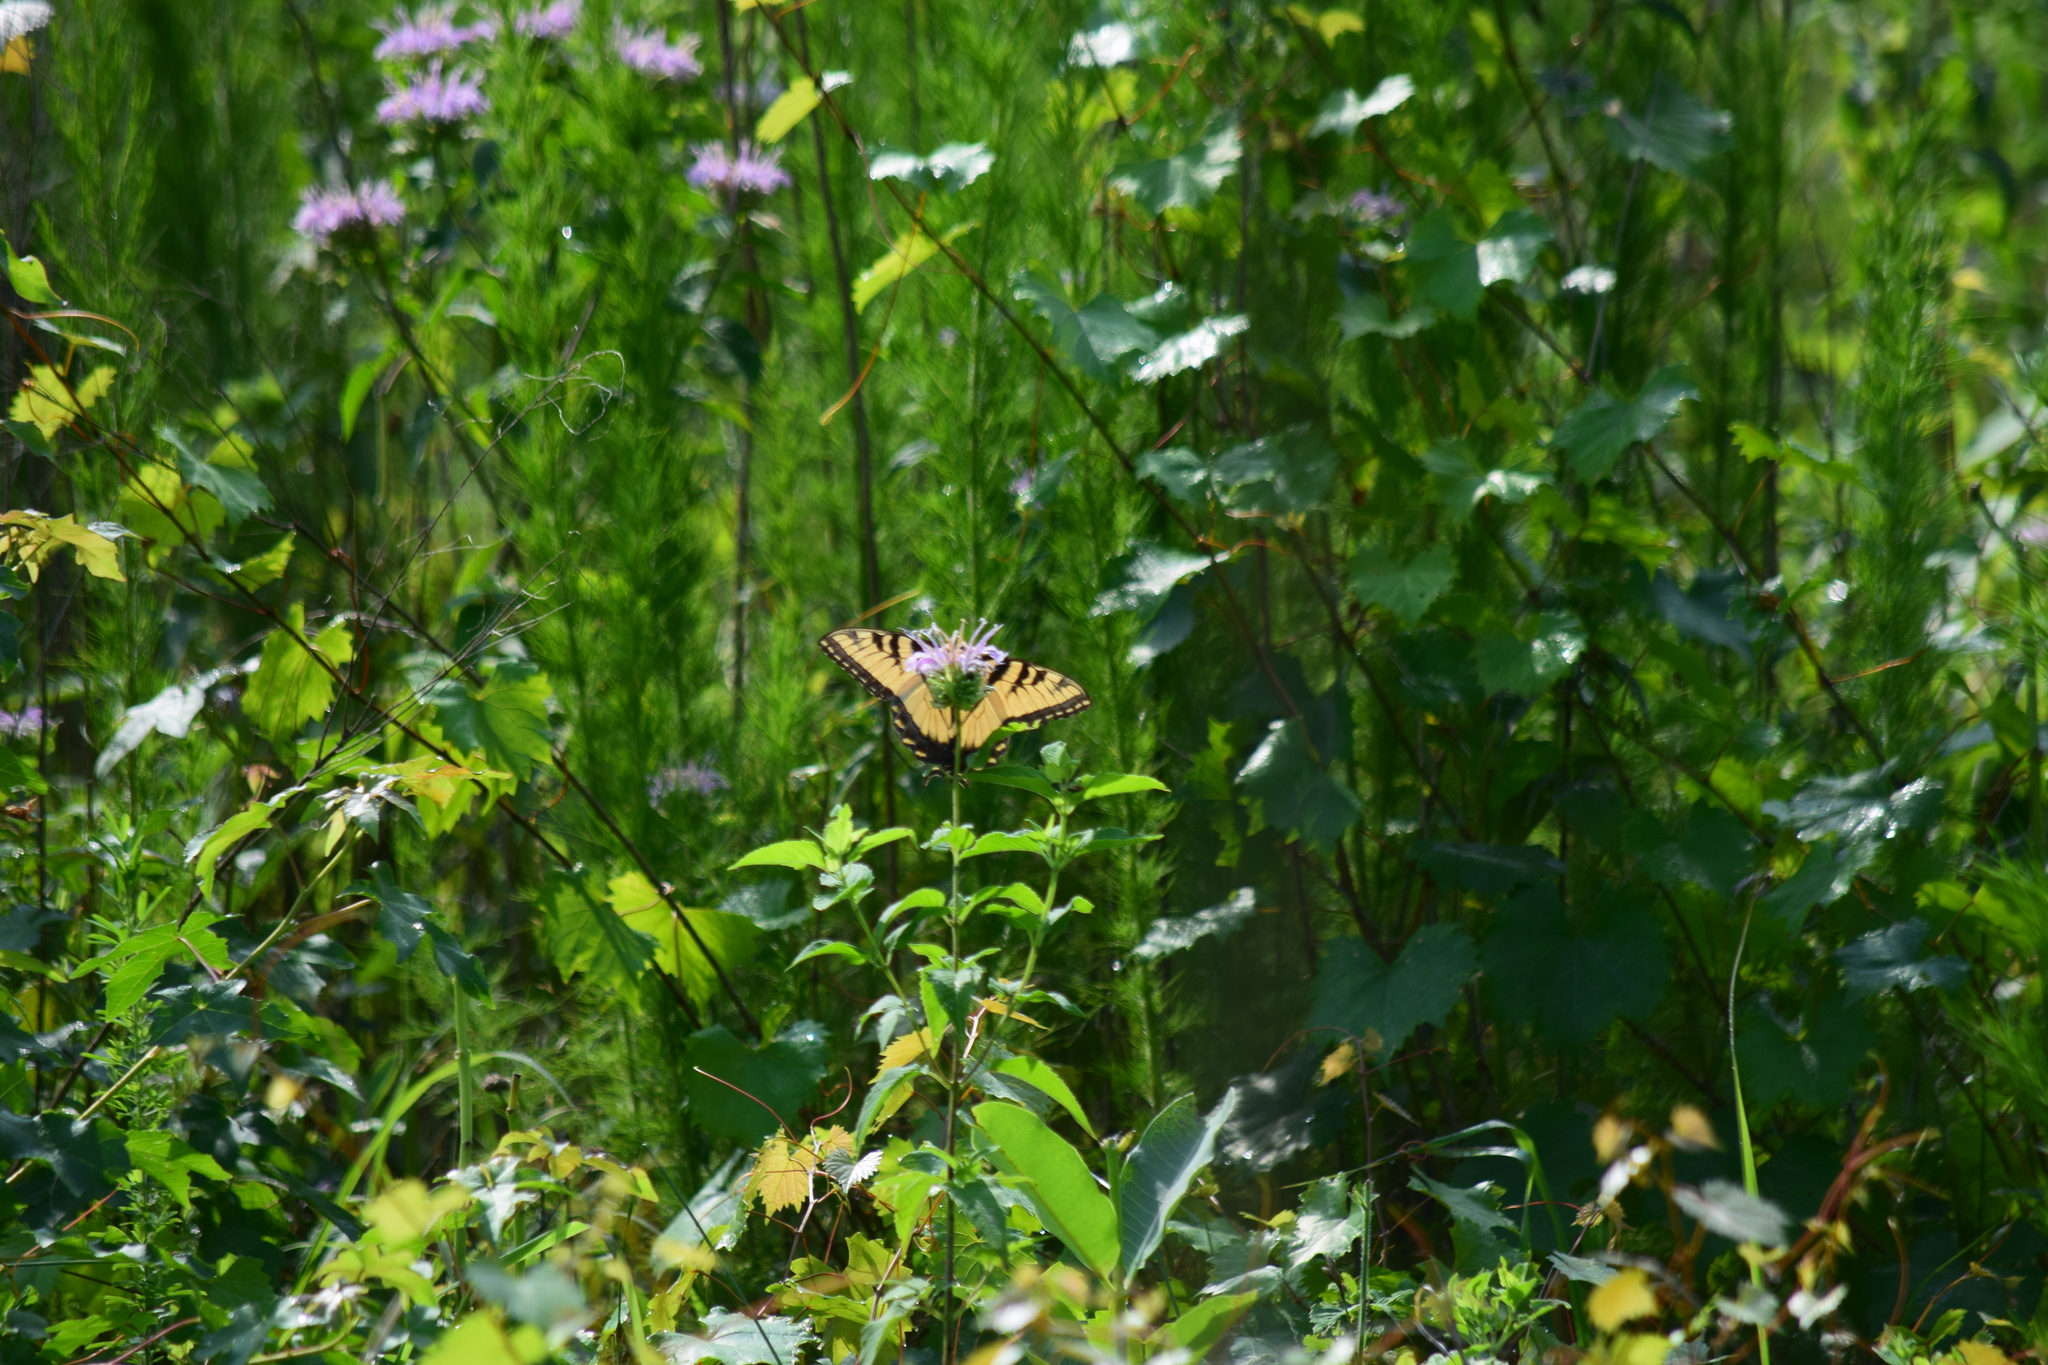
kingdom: Animalia
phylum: Arthropoda
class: Insecta
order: Lepidoptera
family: Papilionidae
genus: Papilio
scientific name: Papilio glaucus
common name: Tiger swallowtail
